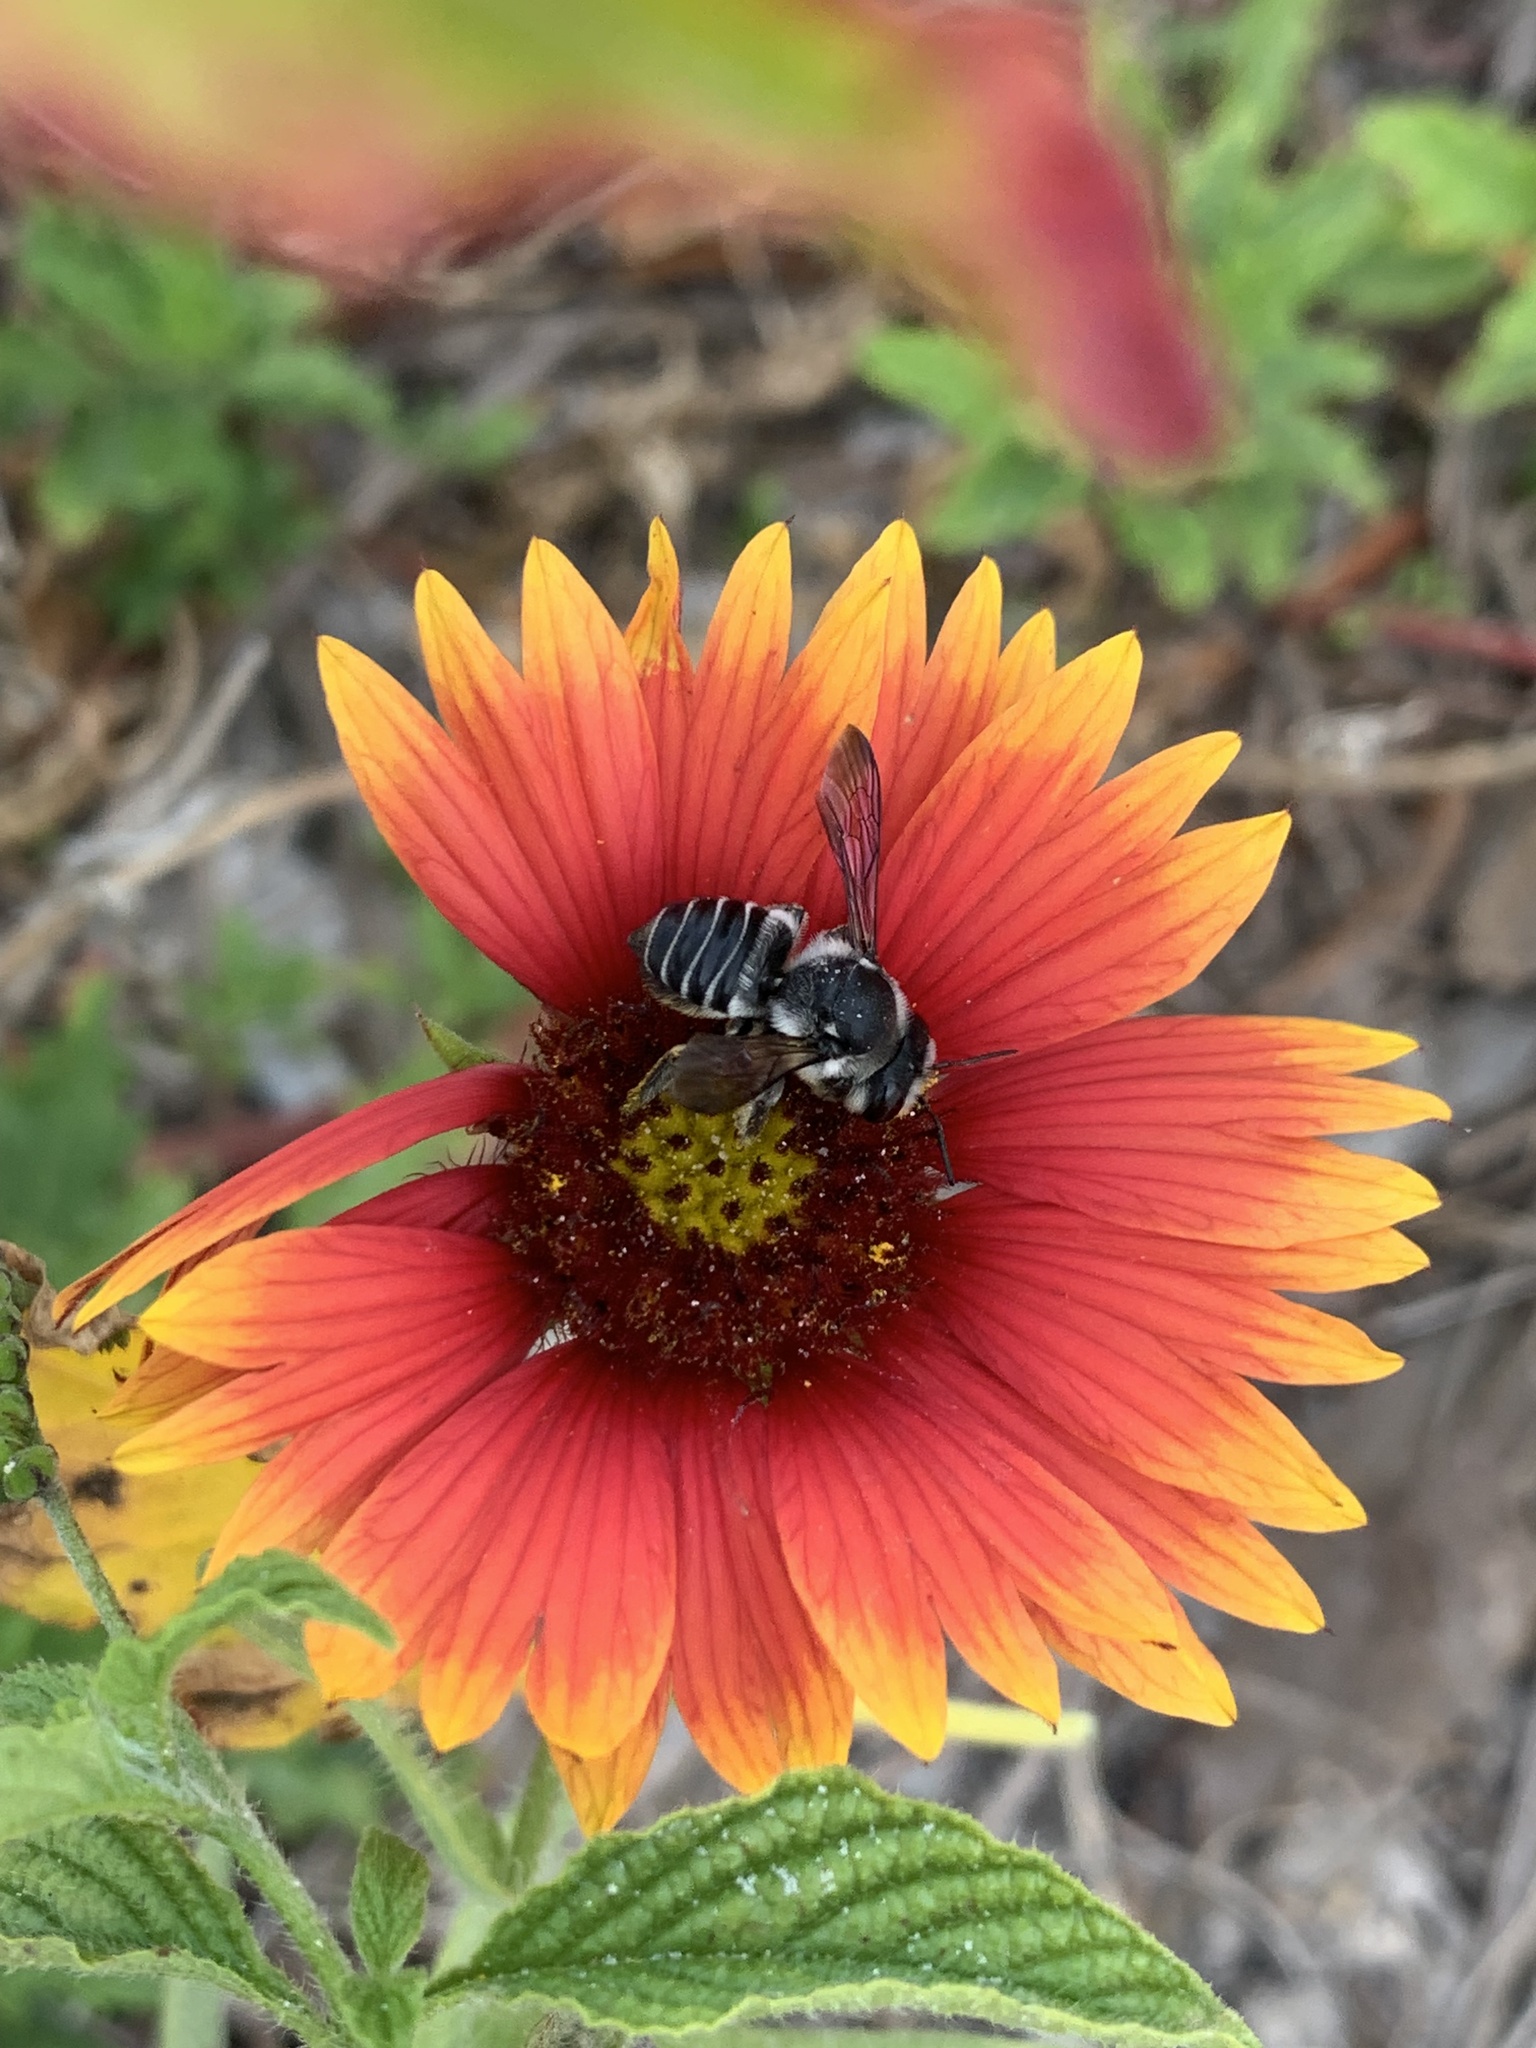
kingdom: Animalia
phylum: Arthropoda
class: Insecta
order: Hymenoptera
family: Megachilidae
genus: Megachile
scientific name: Megachile pruina
